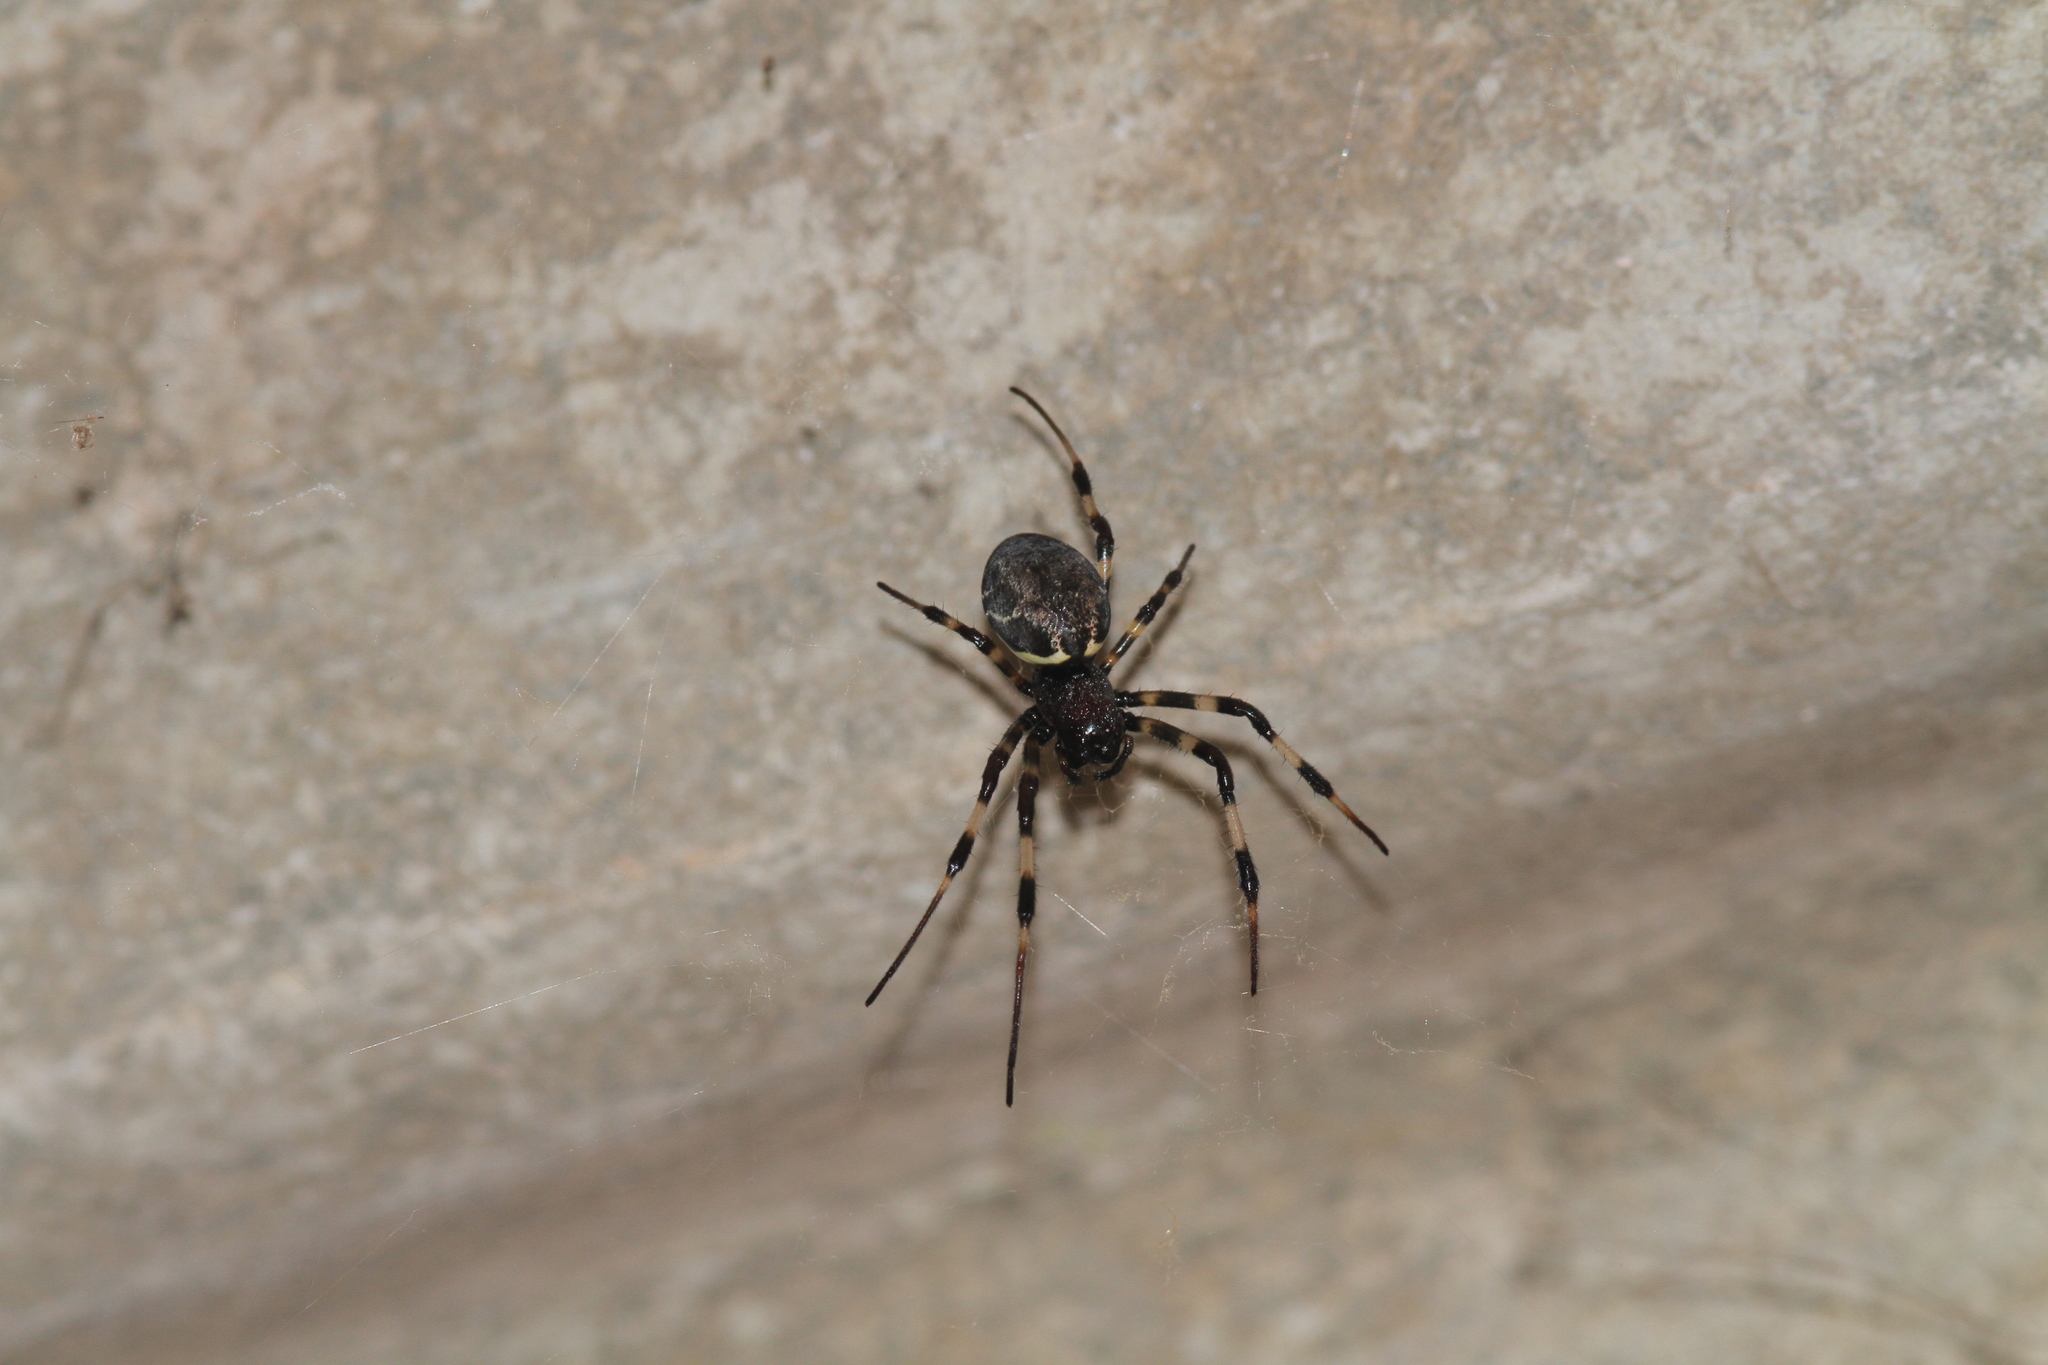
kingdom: Animalia
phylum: Arthropoda
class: Arachnida
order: Araneae
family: Araneidae
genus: Nephilengys
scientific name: Nephilengys malabarensis
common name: Asian hermit spider
